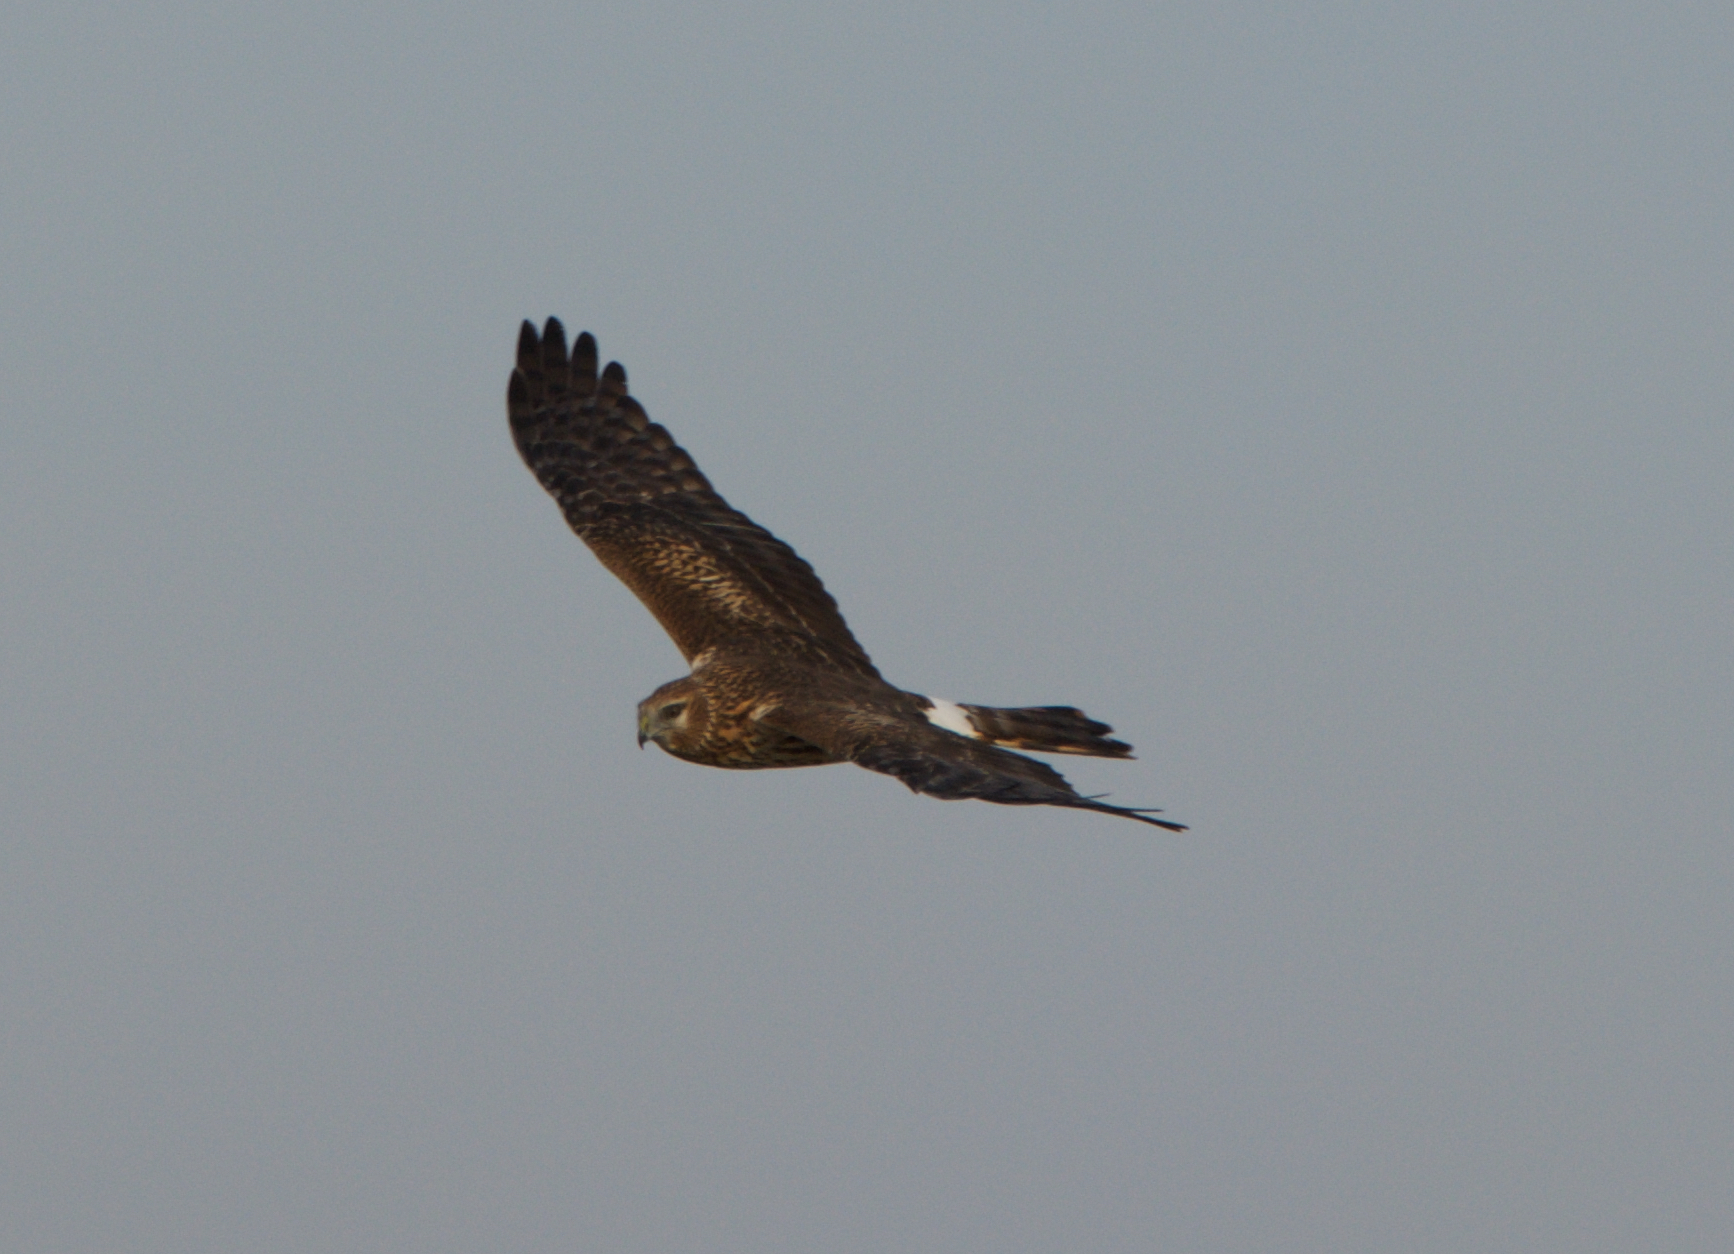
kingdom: Animalia
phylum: Chordata
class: Aves
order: Accipitriformes
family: Accipitridae
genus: Circus
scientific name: Circus cyaneus
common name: Hen harrier
